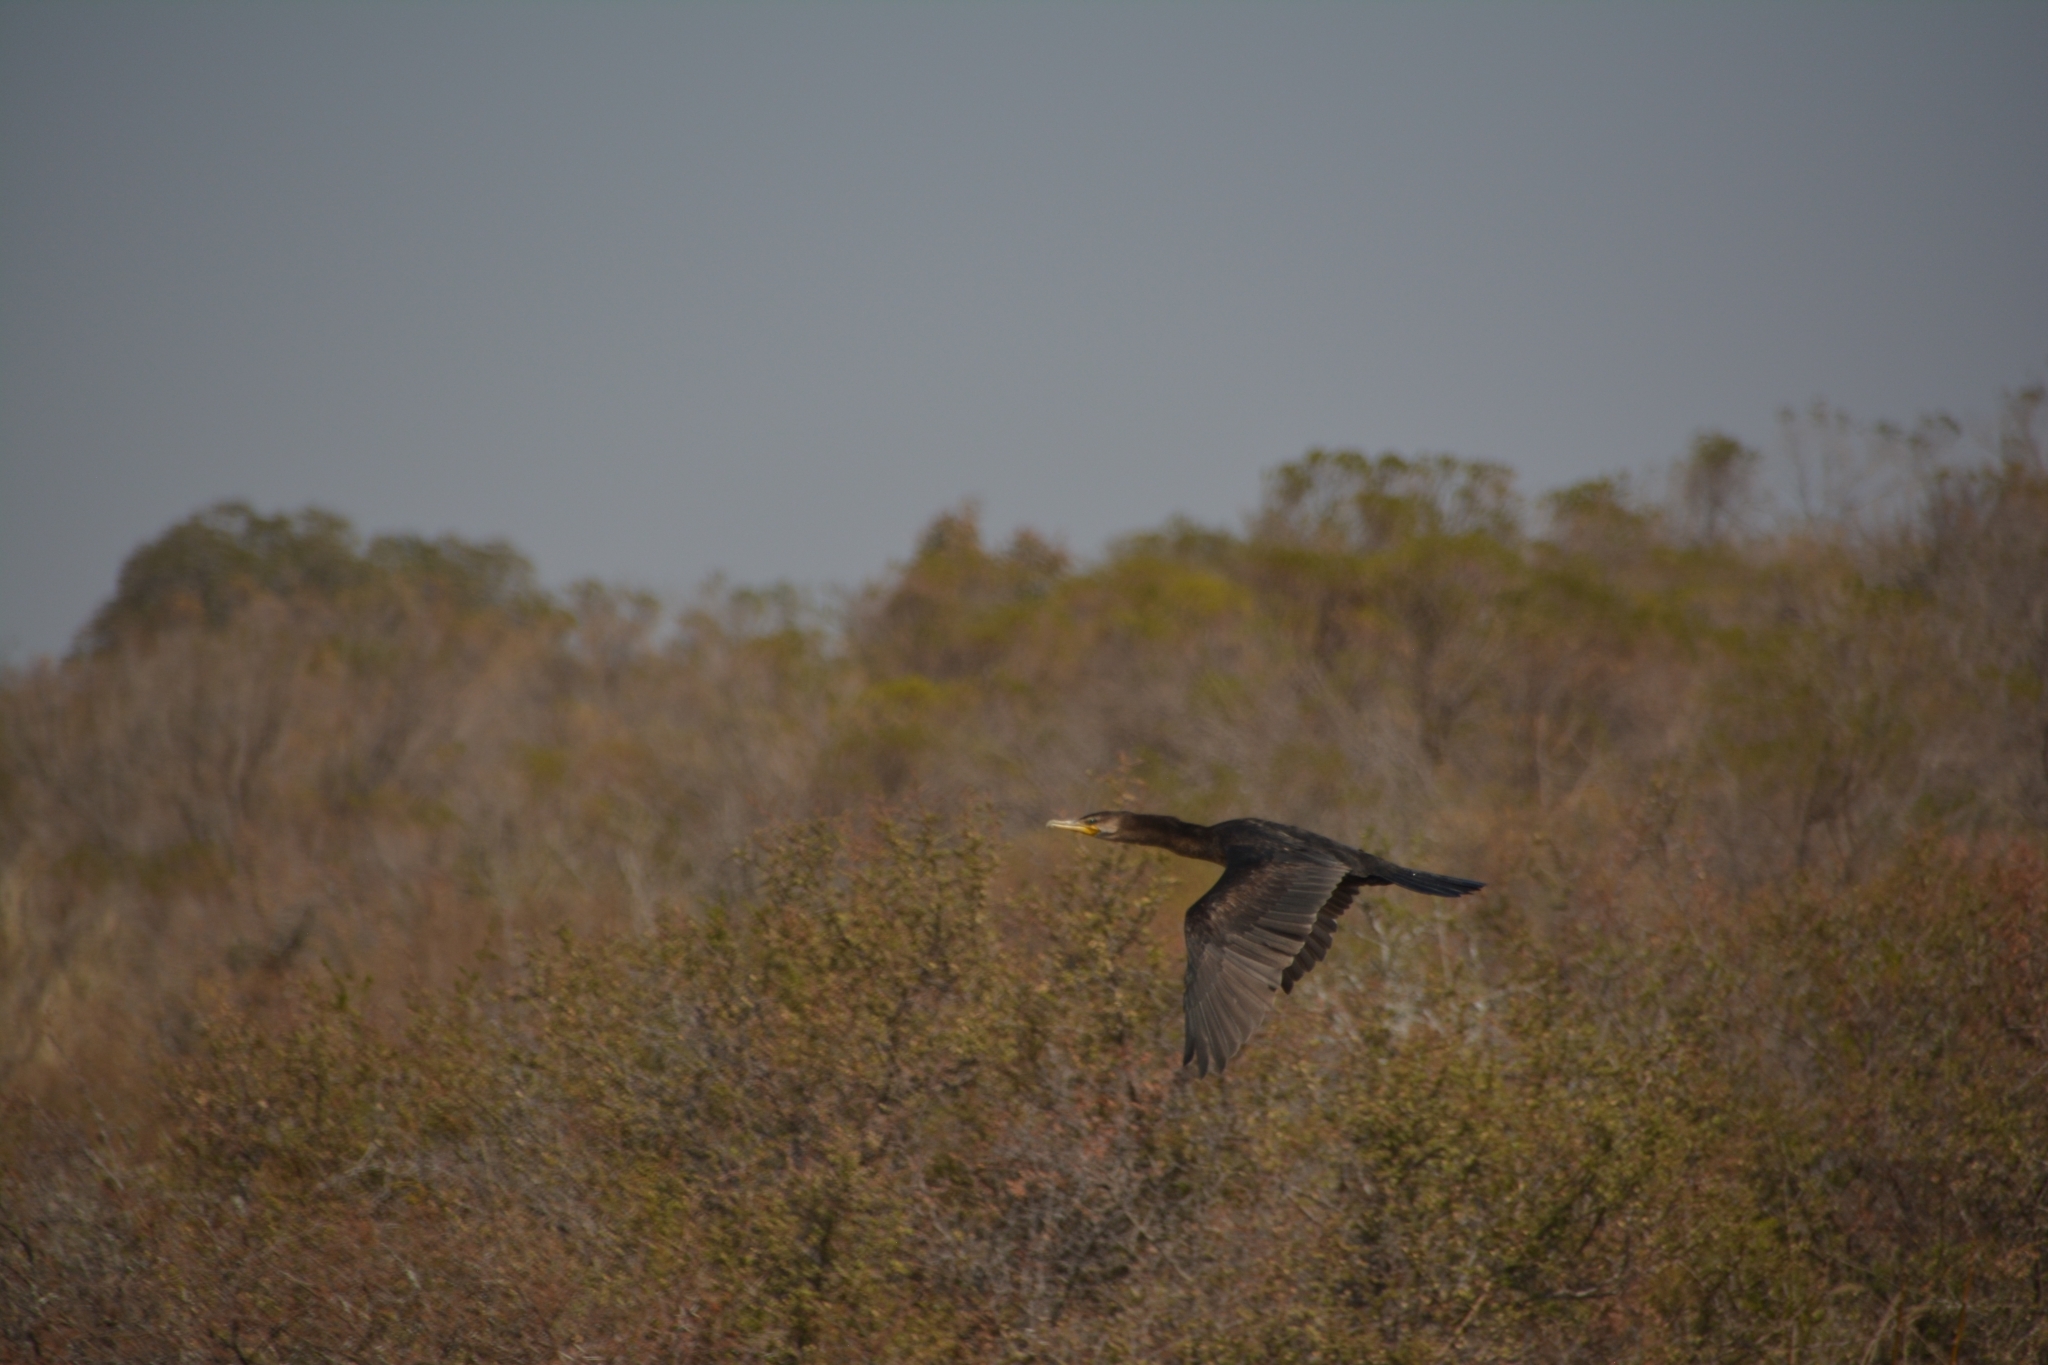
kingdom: Animalia
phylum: Chordata
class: Aves
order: Suliformes
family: Phalacrocoracidae
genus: Phalacrocorax
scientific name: Phalacrocorax brasilianus
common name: Neotropic cormorant
